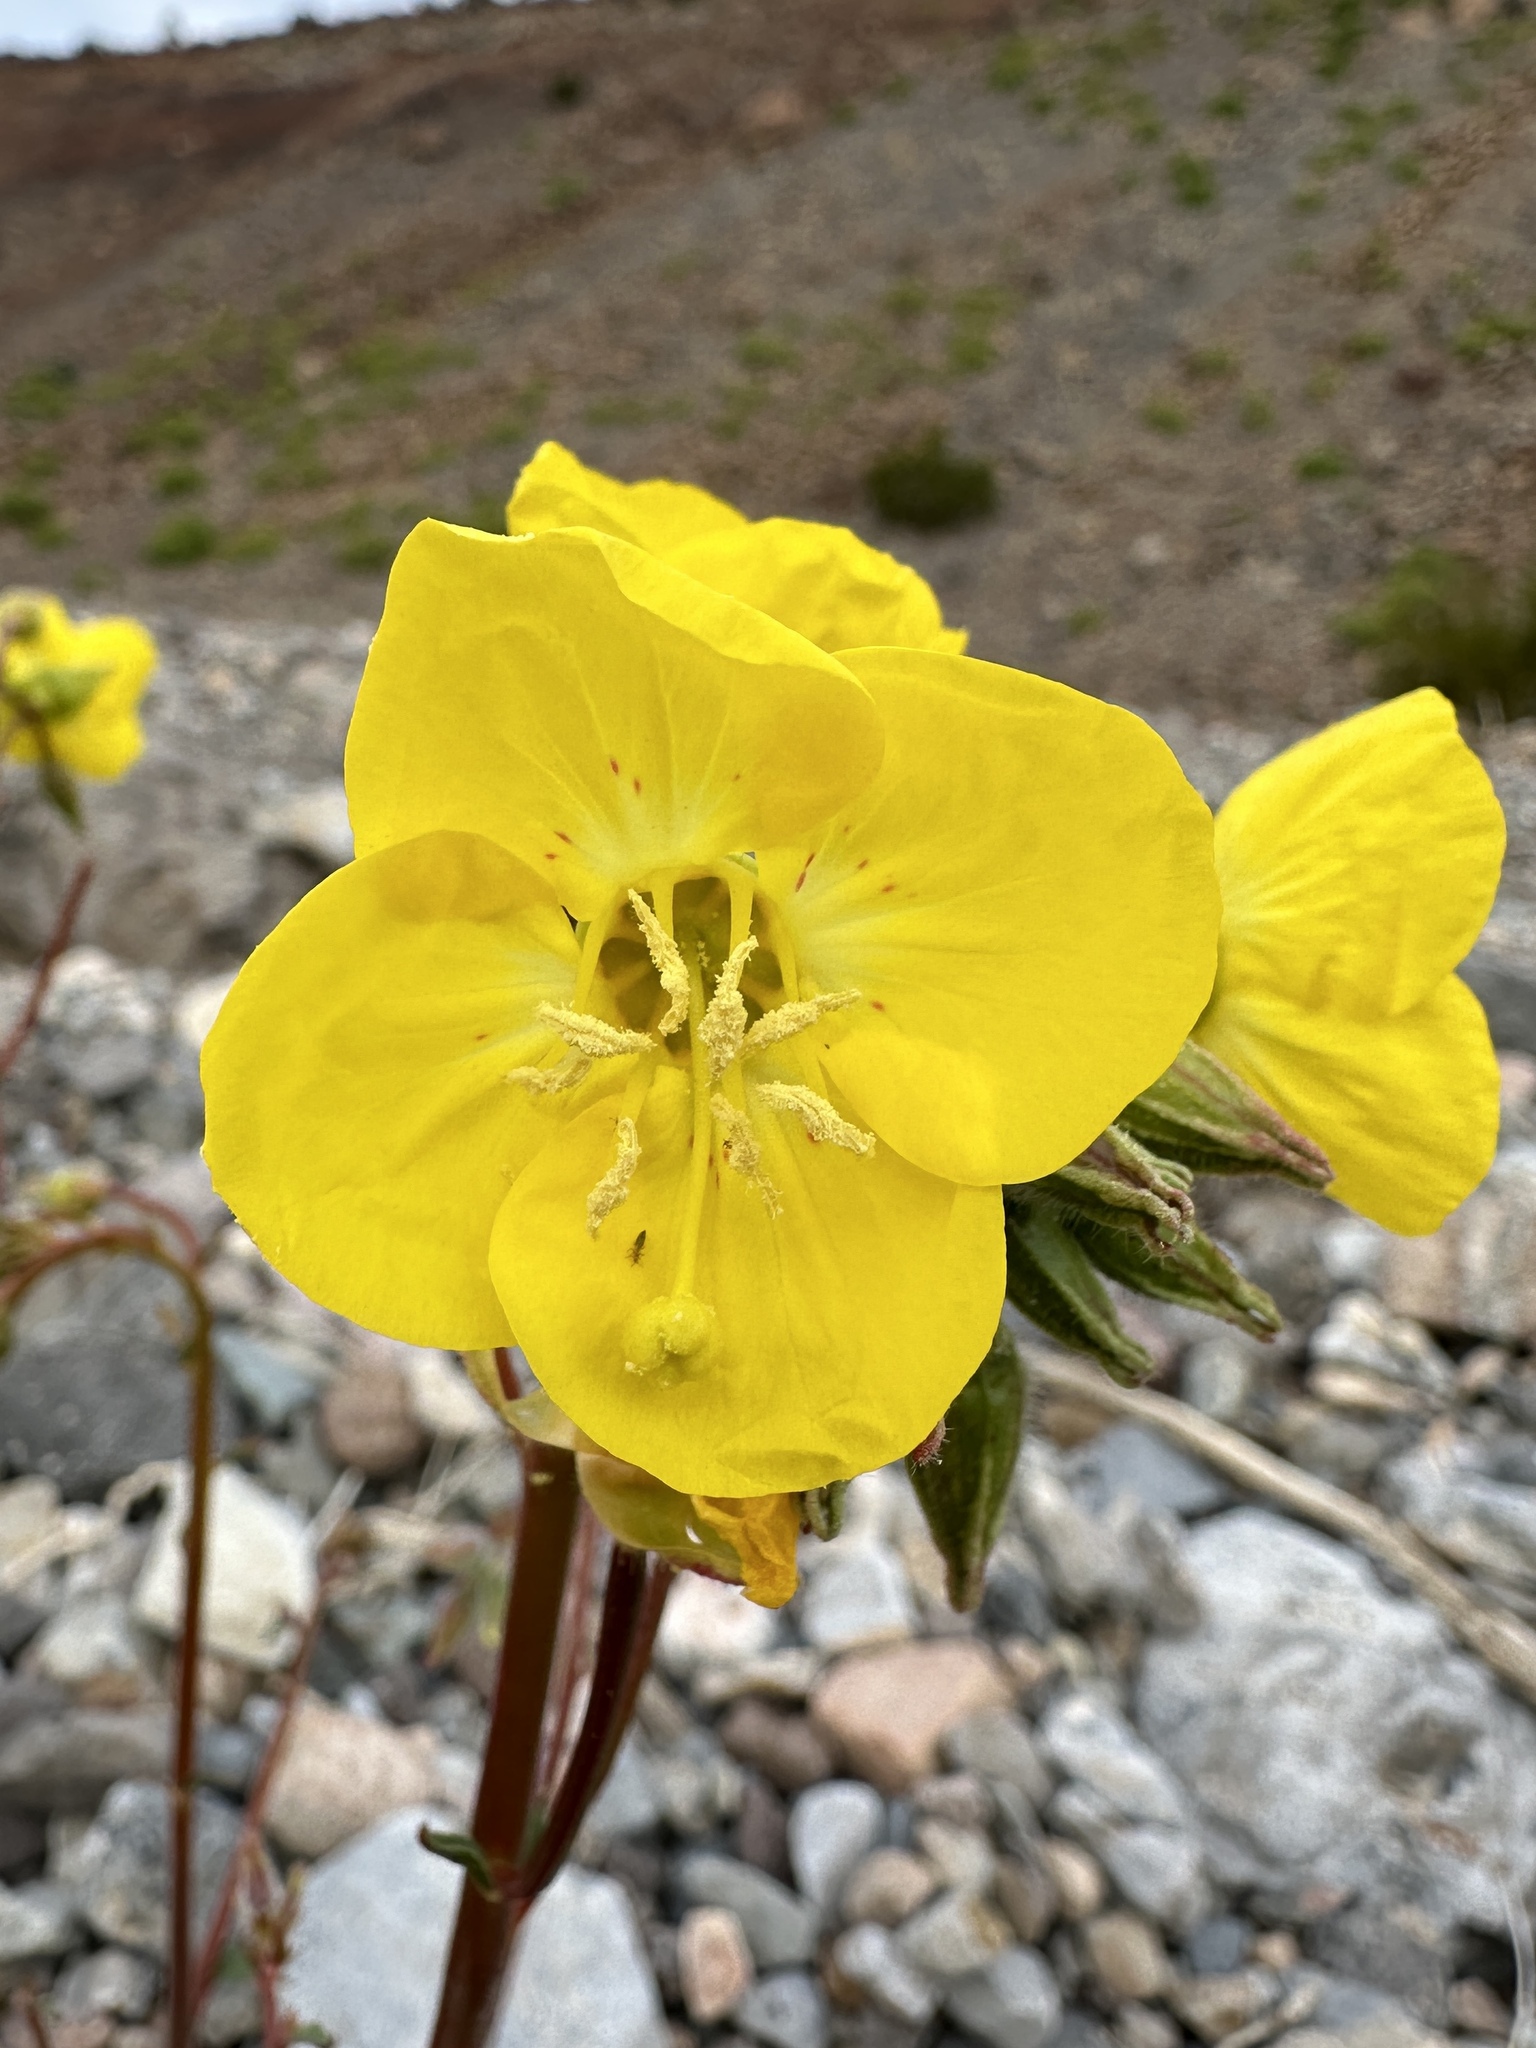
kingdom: Plantae
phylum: Tracheophyta
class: Magnoliopsida
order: Myrtales
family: Onagraceae
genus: Chylismia
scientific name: Chylismia brevipes
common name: Yellow cups
